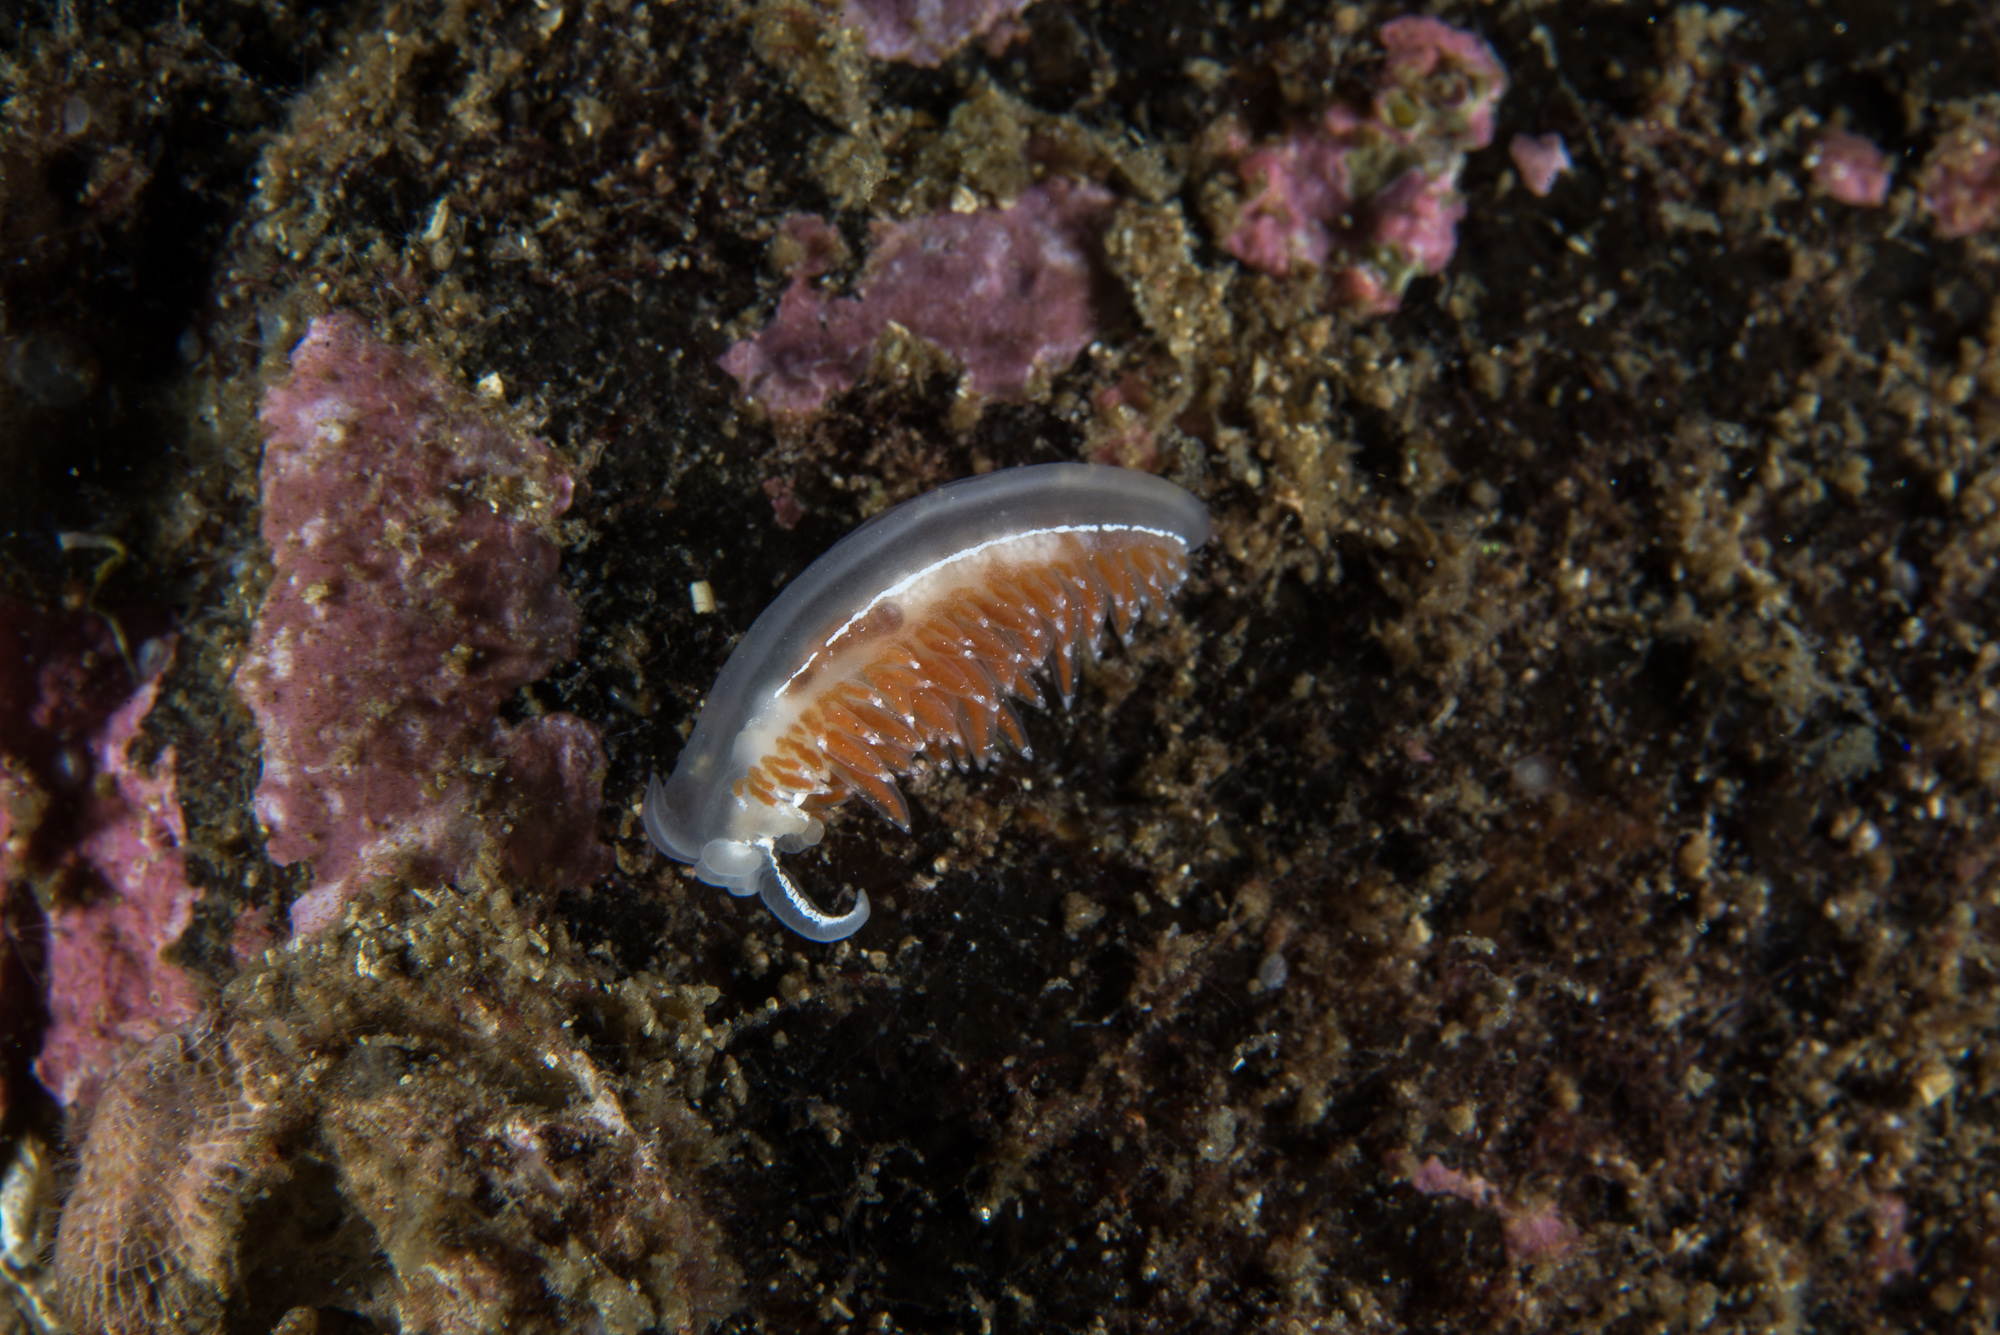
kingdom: Animalia
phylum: Mollusca
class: Gastropoda
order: Nudibranchia
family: Coryphellidae
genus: Coryphella
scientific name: Coryphella monicae
